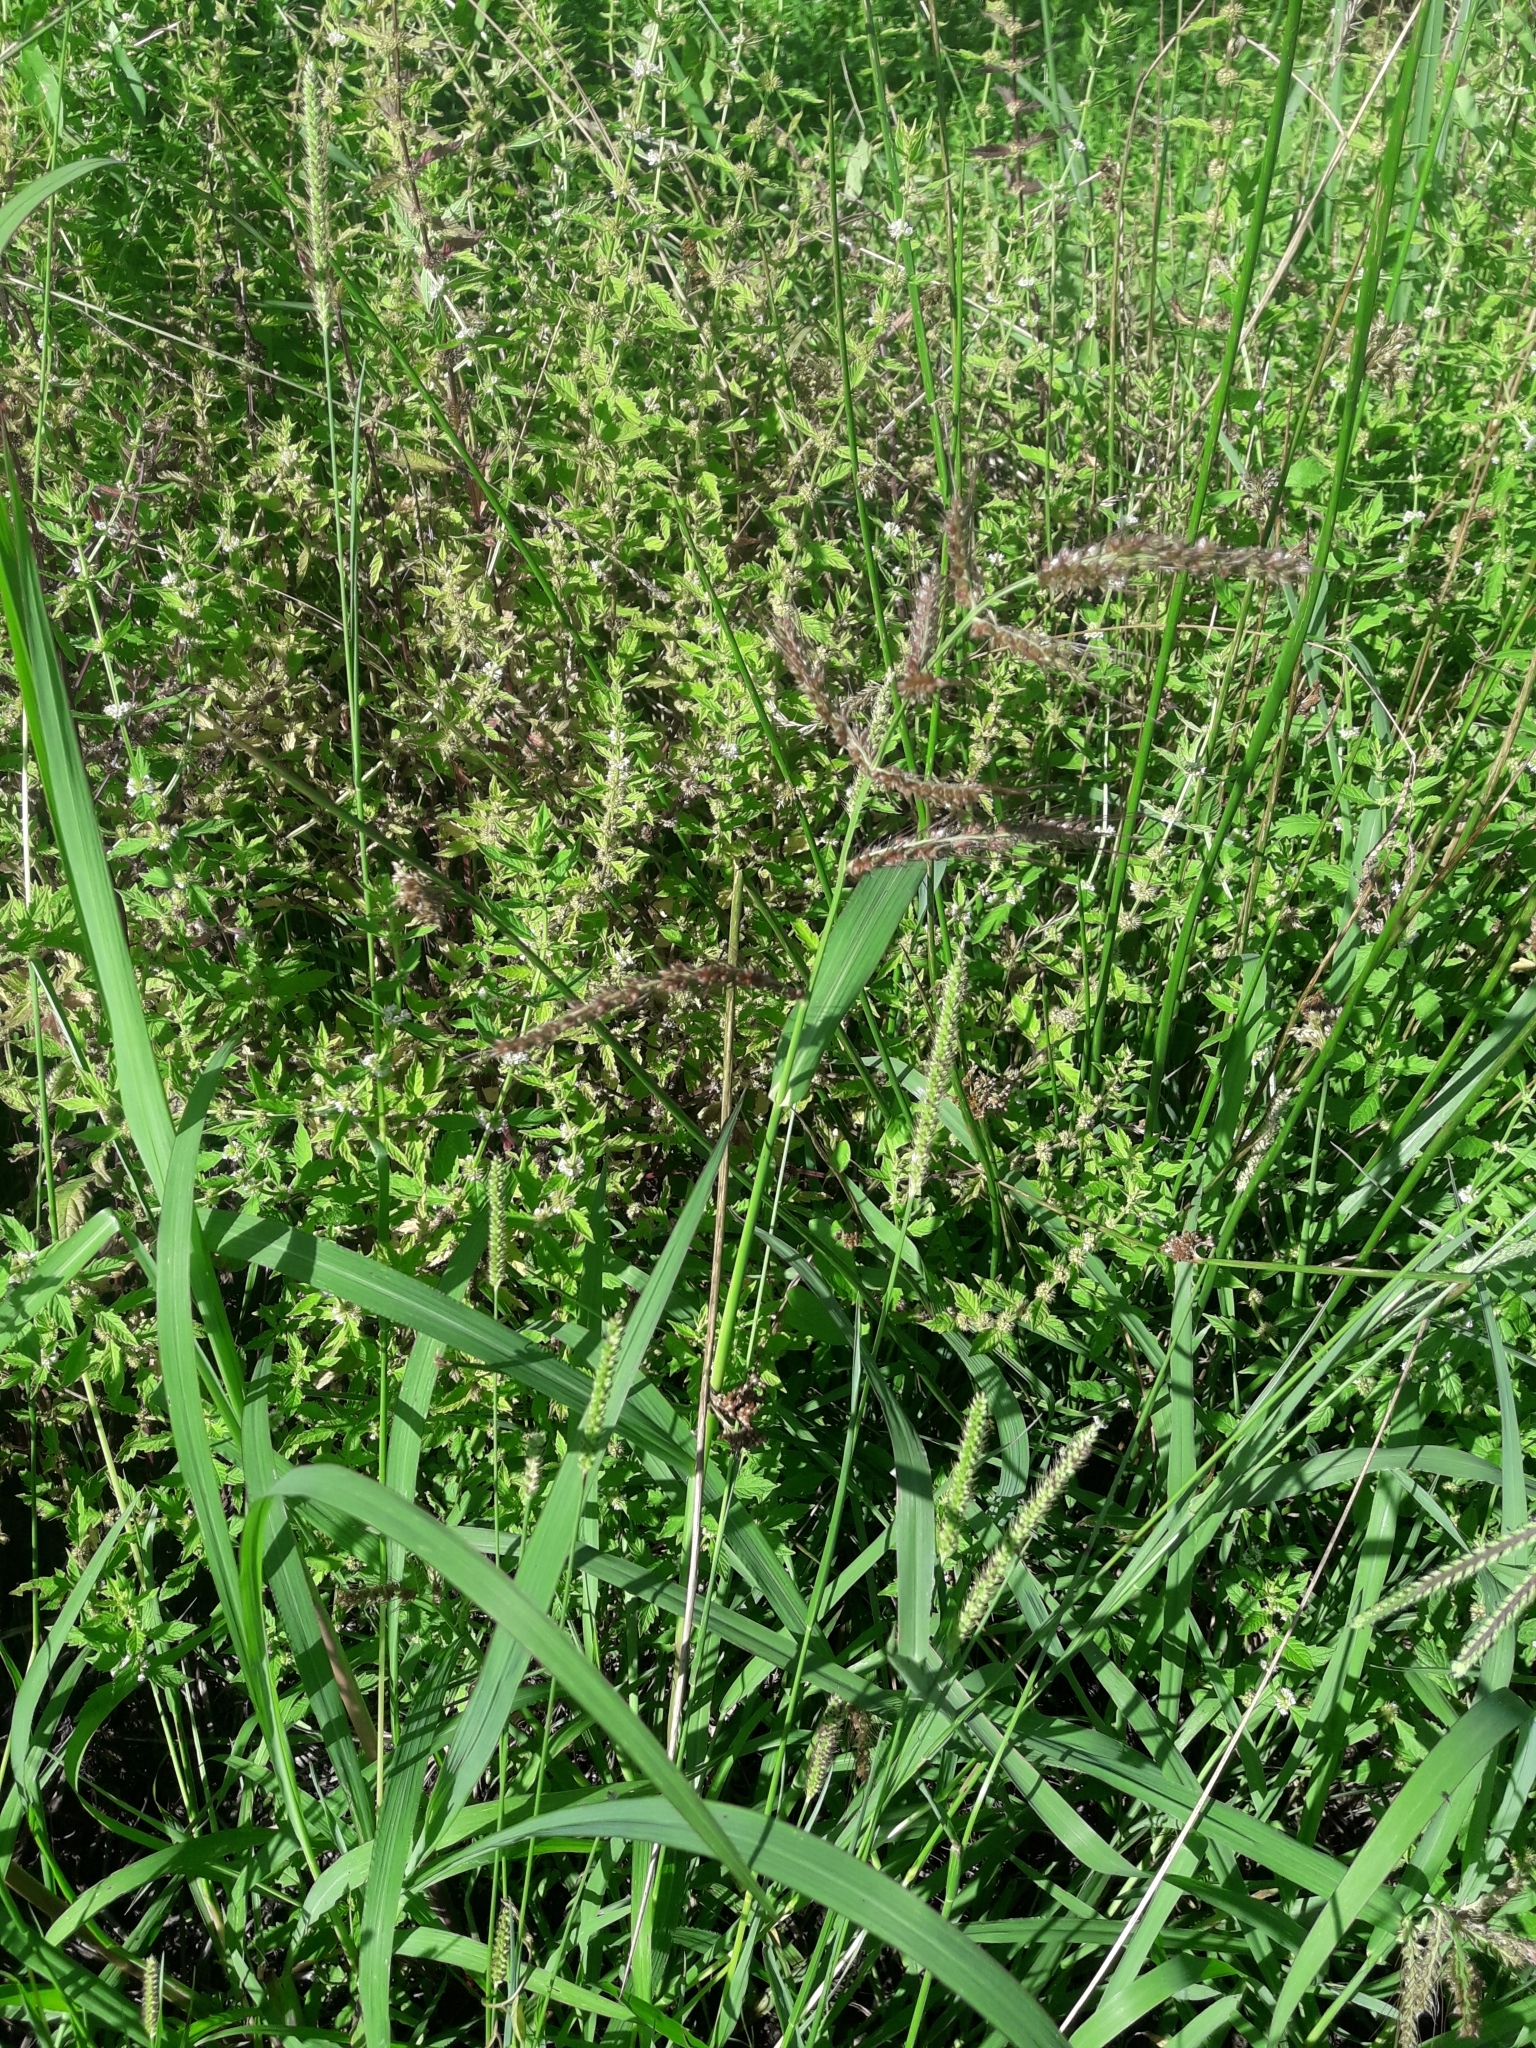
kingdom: Plantae
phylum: Tracheophyta
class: Liliopsida
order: Poales
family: Poaceae
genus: Echinochloa
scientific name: Echinochloa crus-galli
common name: Cockspur
